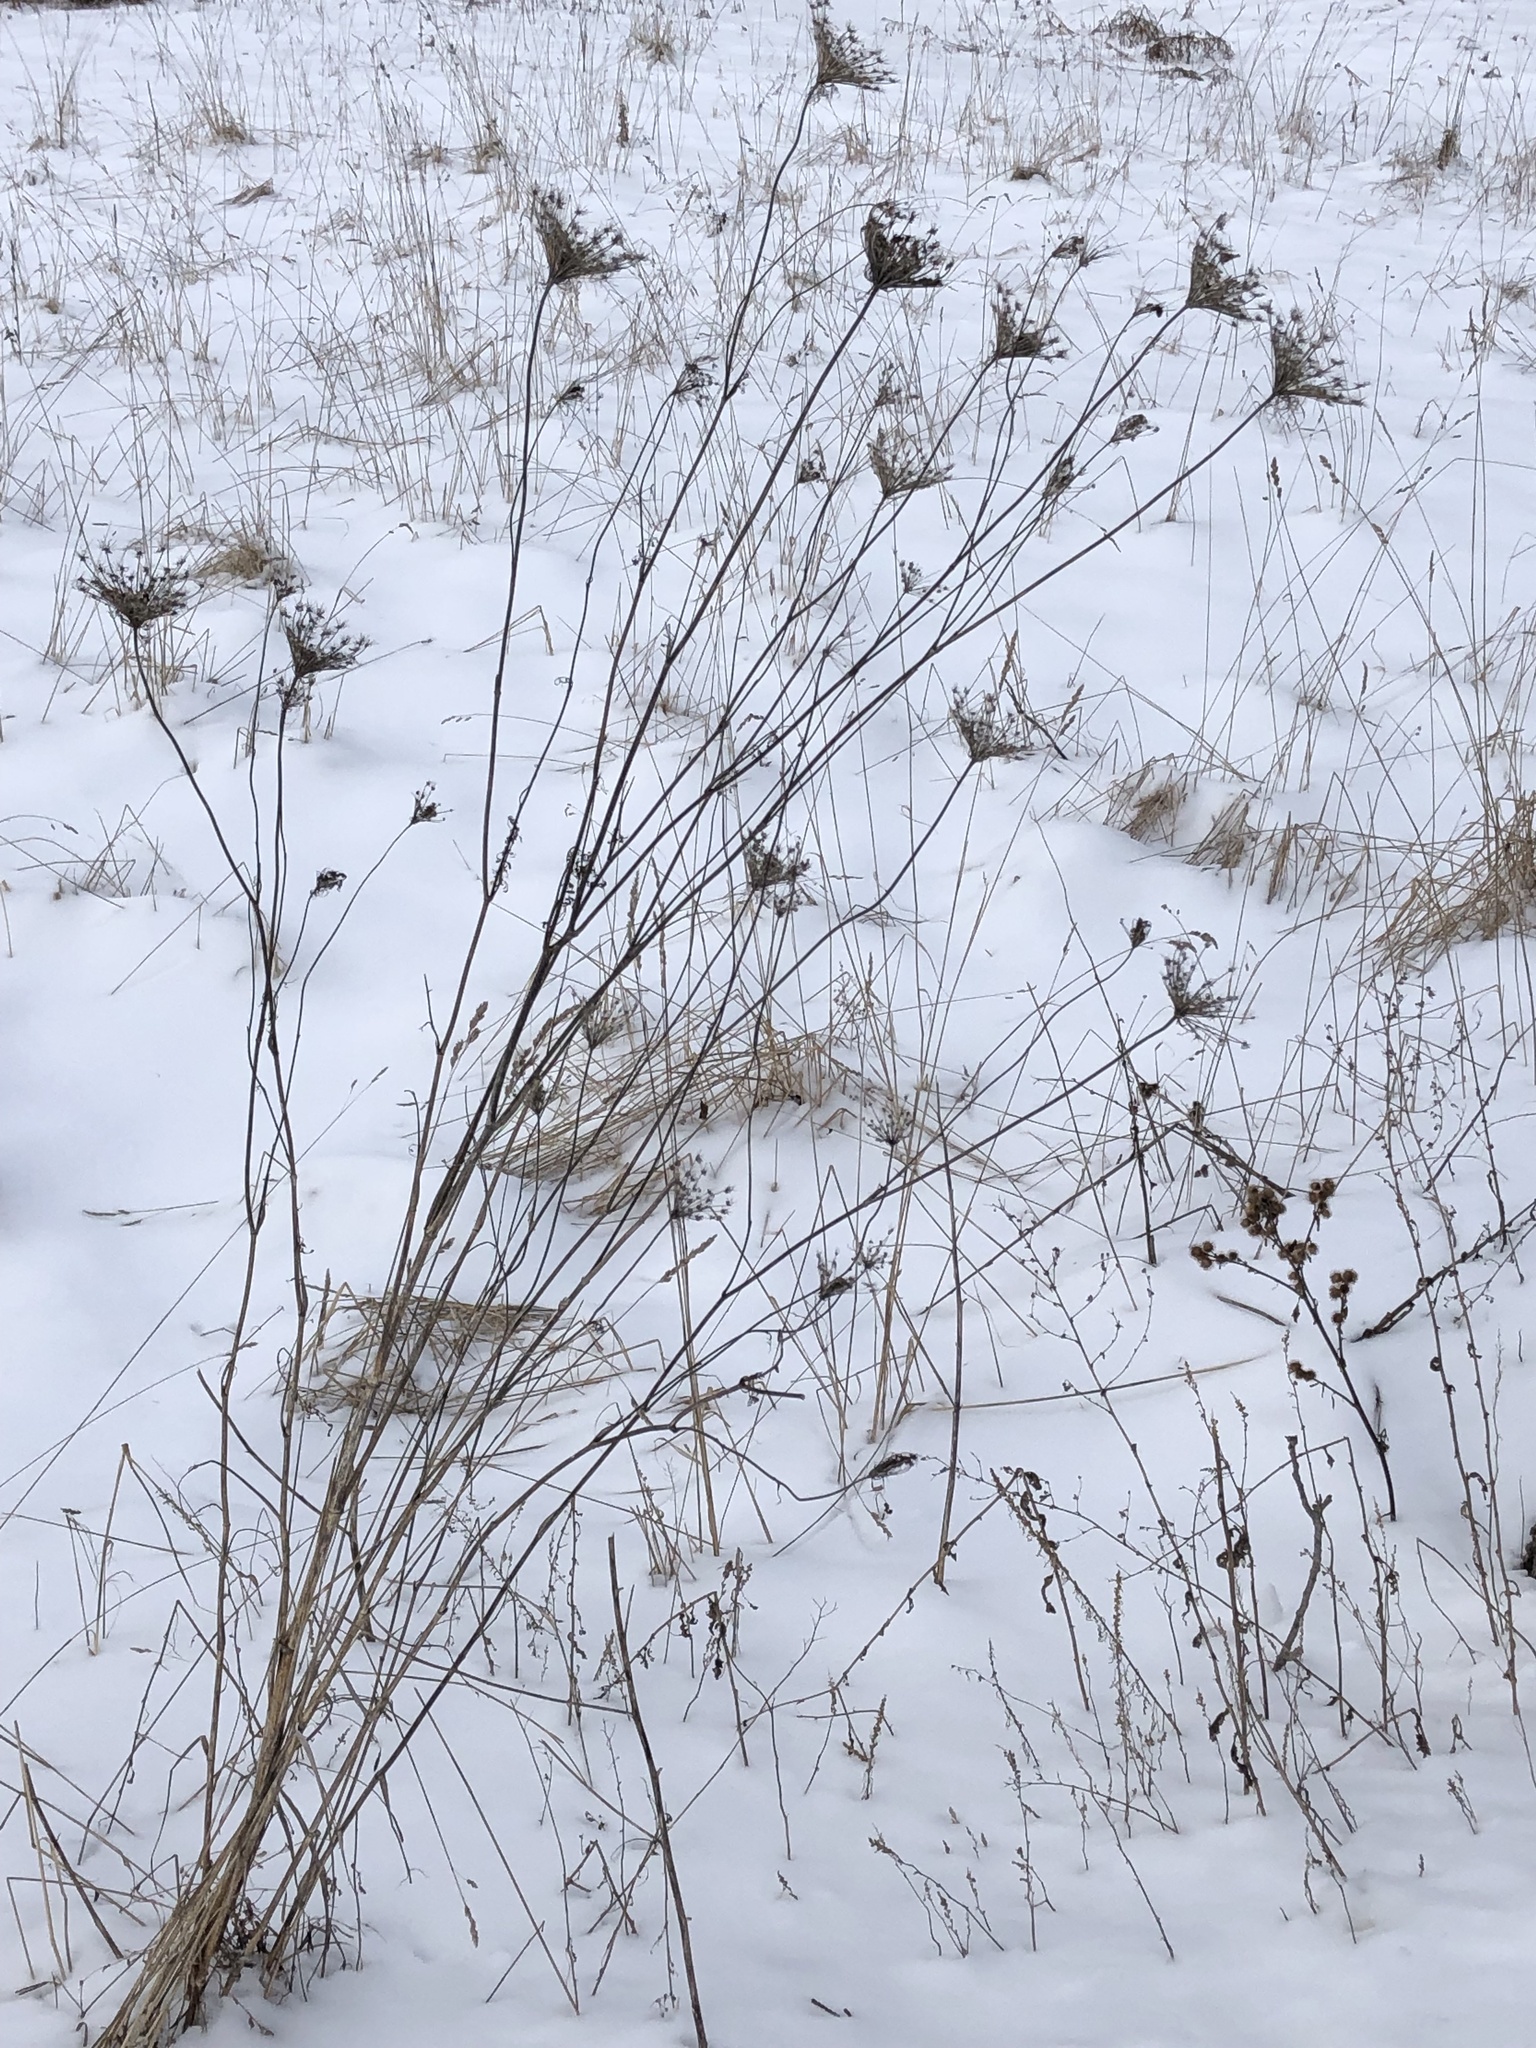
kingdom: Plantae
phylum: Tracheophyta
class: Magnoliopsida
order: Apiales
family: Apiaceae
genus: Daucus
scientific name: Daucus carota
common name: Wild carrot
